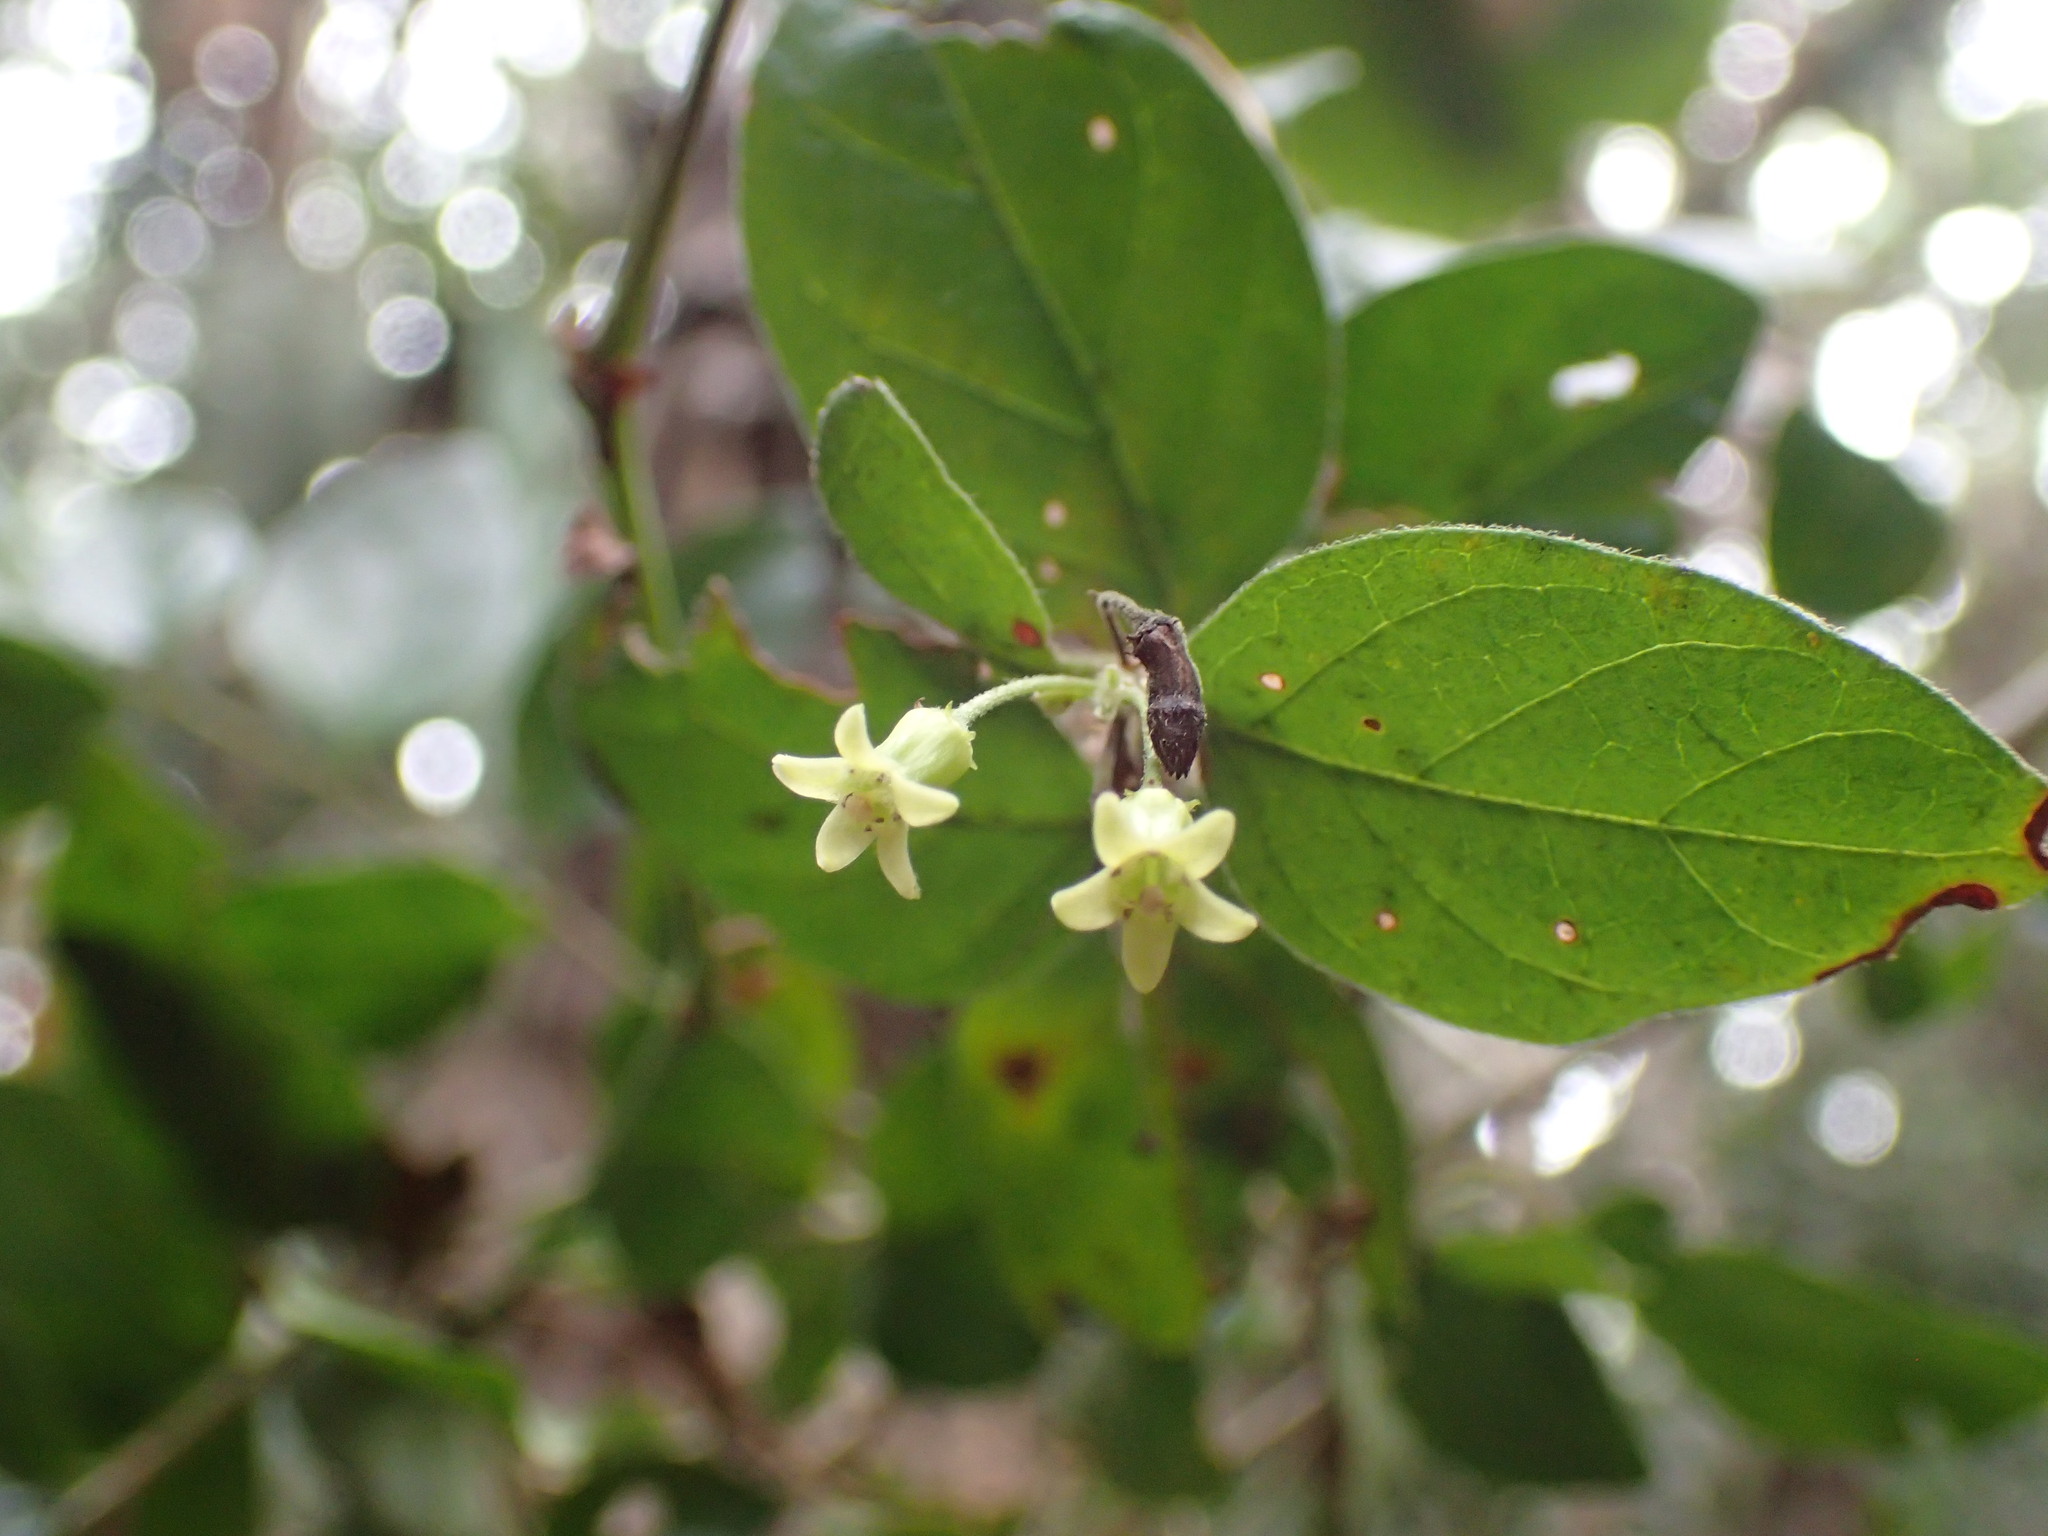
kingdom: Plantae
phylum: Tracheophyta
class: Magnoliopsida
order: Gentianales
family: Rubiaceae
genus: Canthium
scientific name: Canthium ciliatum
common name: Hairy turkey-berry
